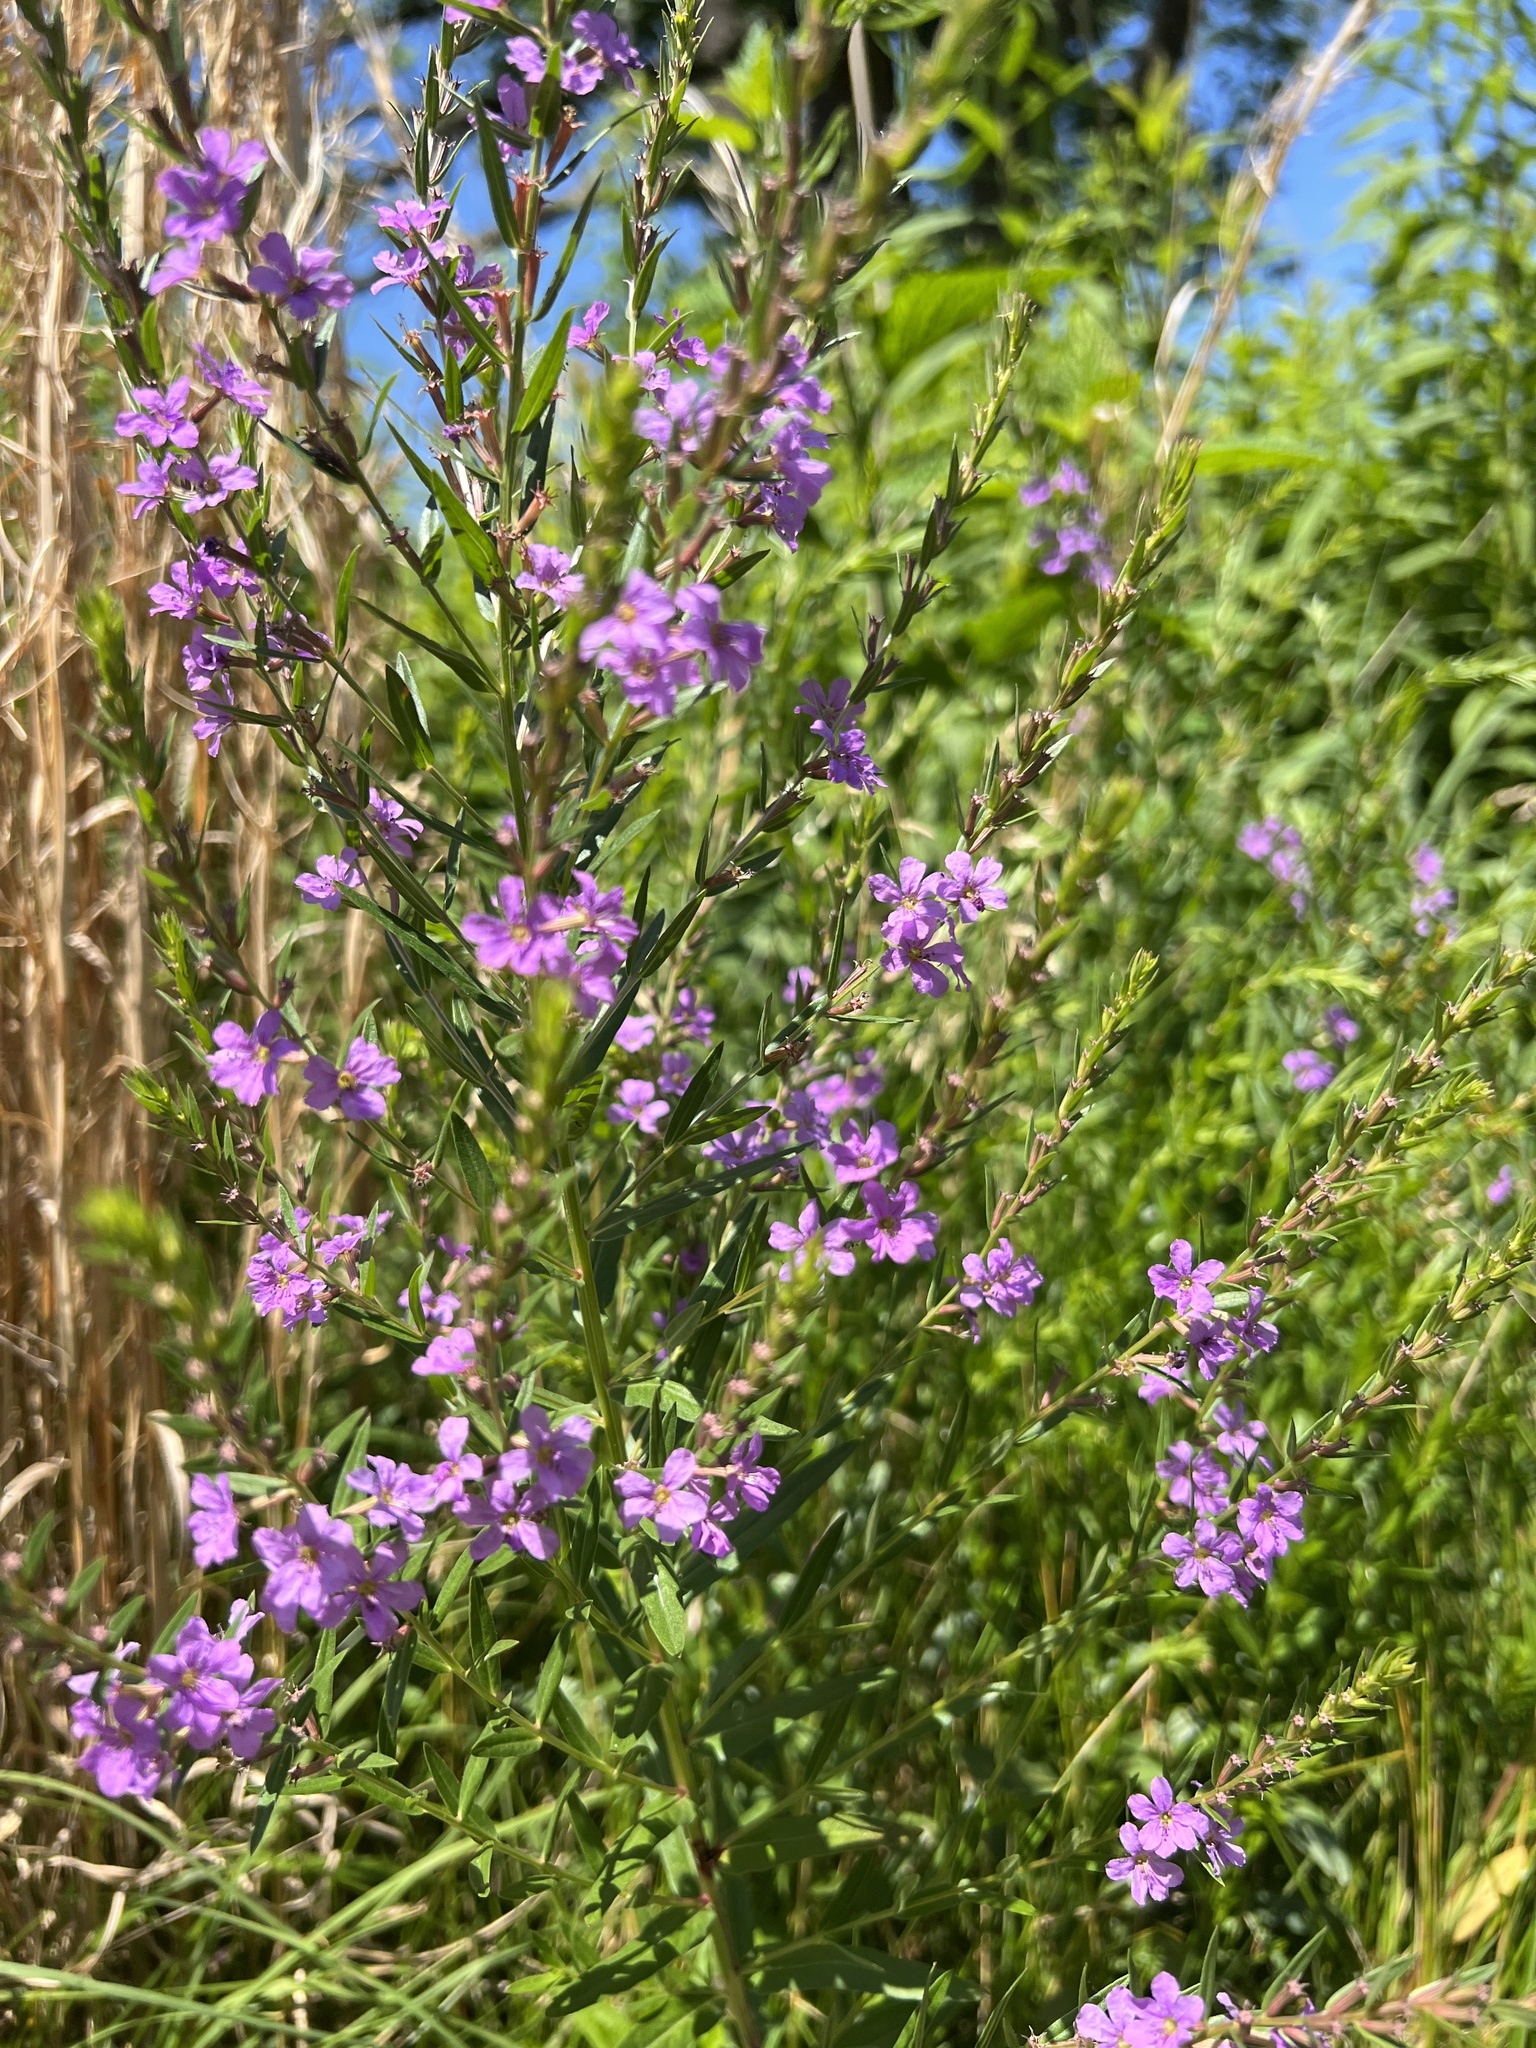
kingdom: Plantae
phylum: Tracheophyta
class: Magnoliopsida
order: Myrtales
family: Lythraceae
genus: Lythrum
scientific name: Lythrum alatum
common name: Winged loosestrife
